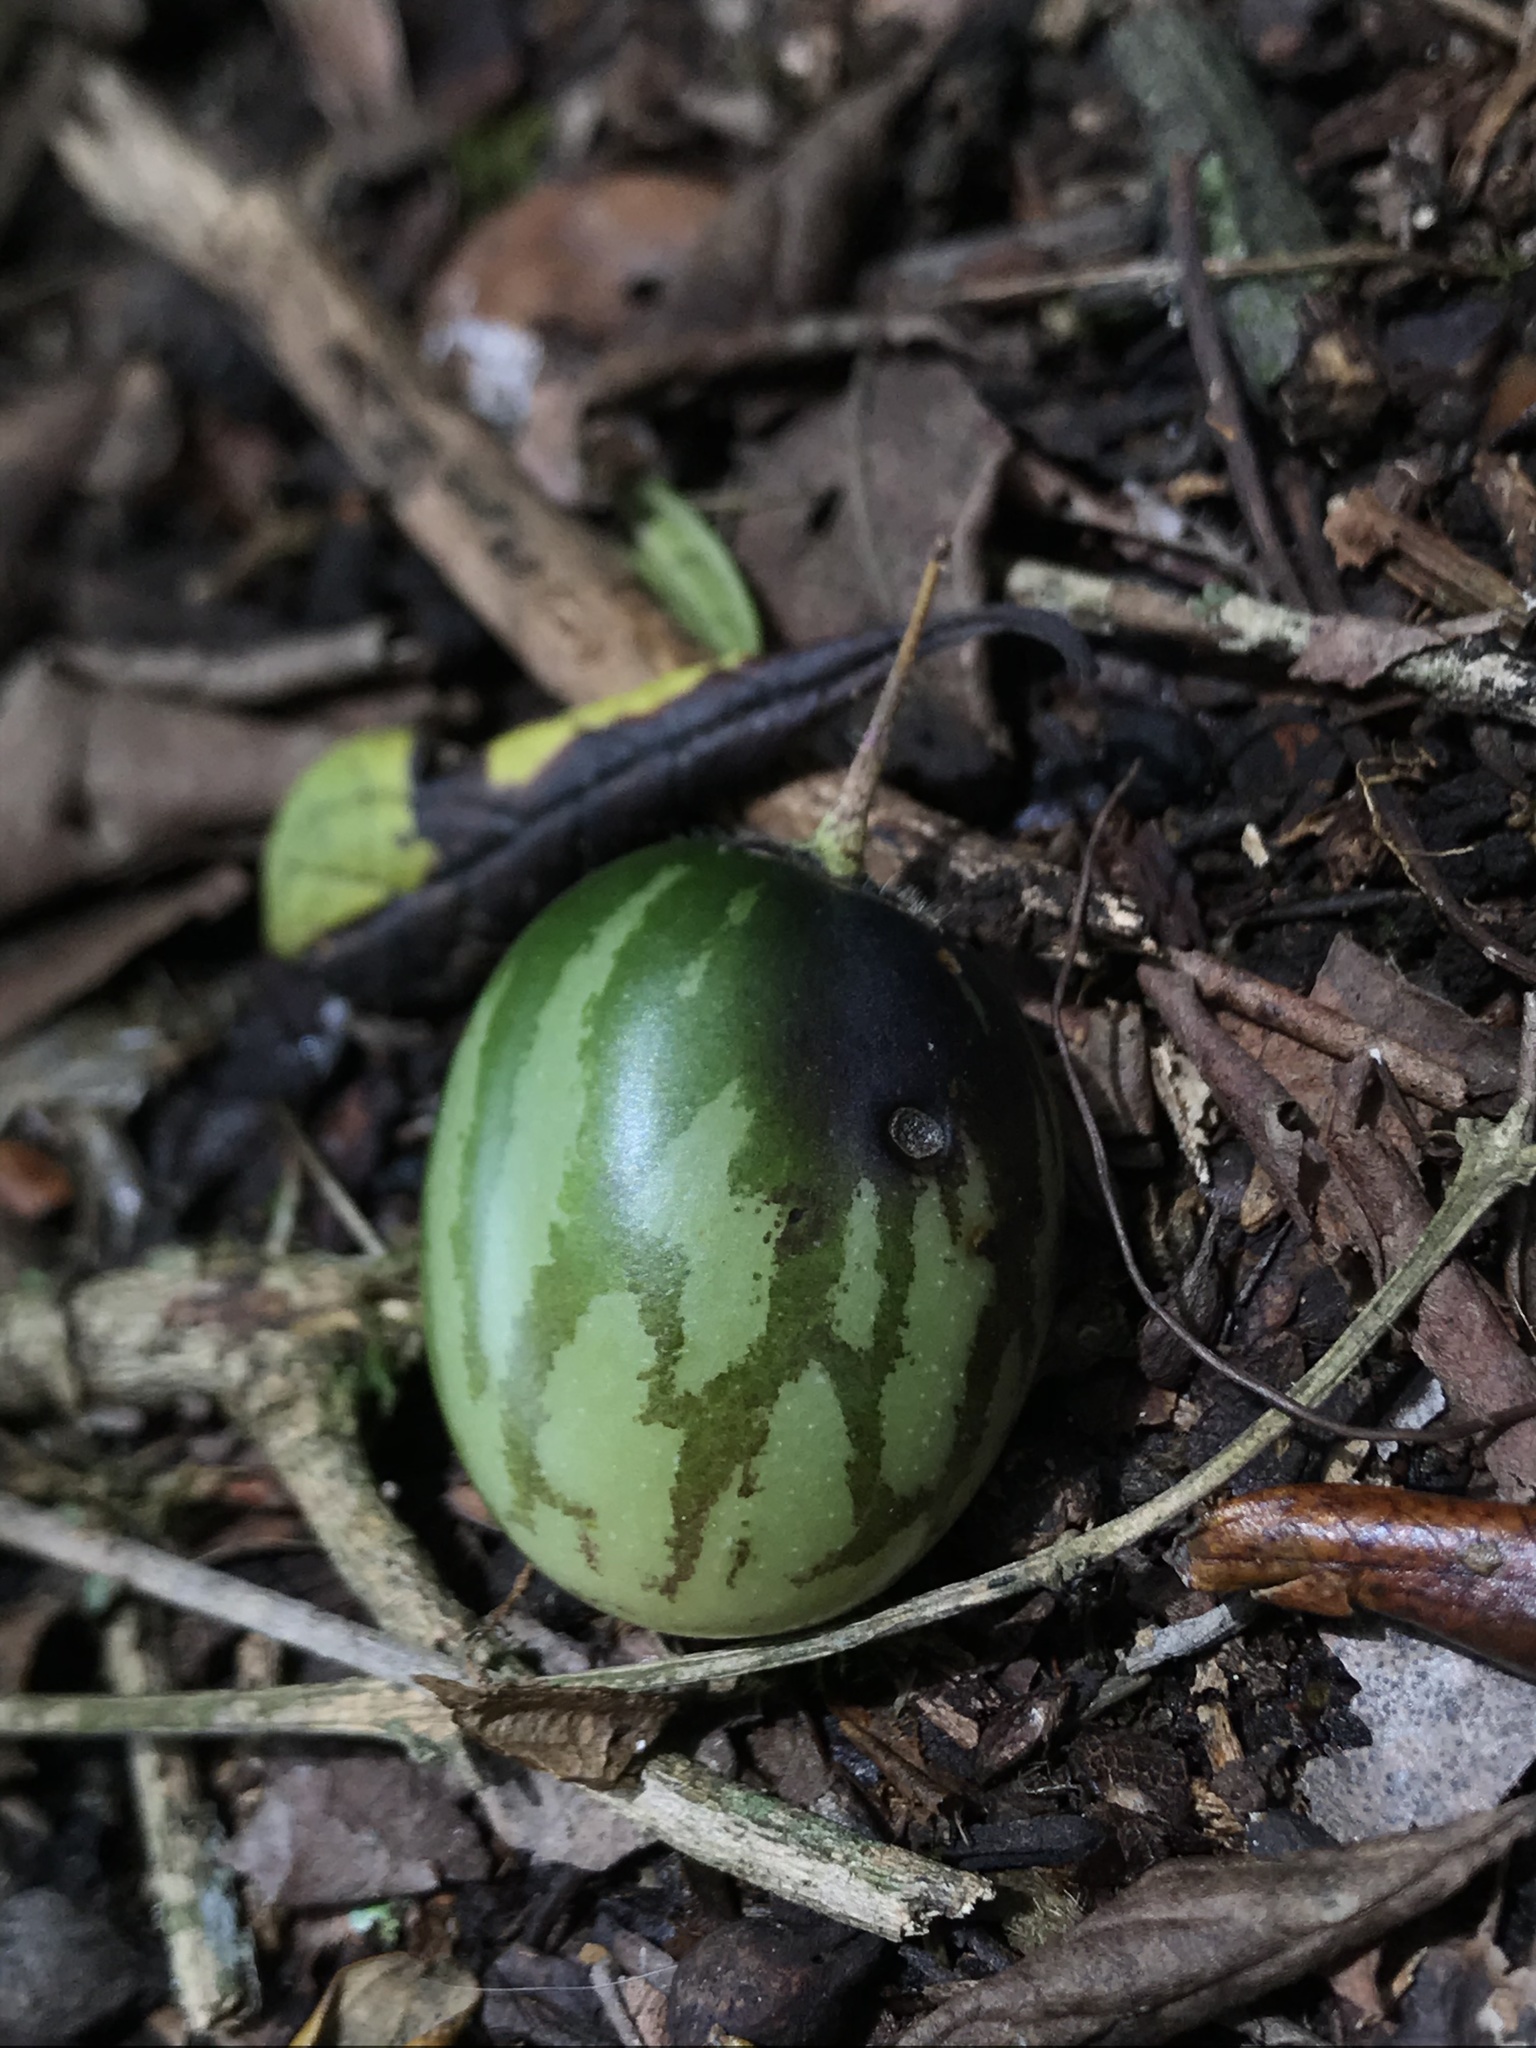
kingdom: Plantae
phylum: Tracheophyta
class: Magnoliopsida
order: Solanales
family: Solanaceae
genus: Solanum
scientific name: Solanum caripense
